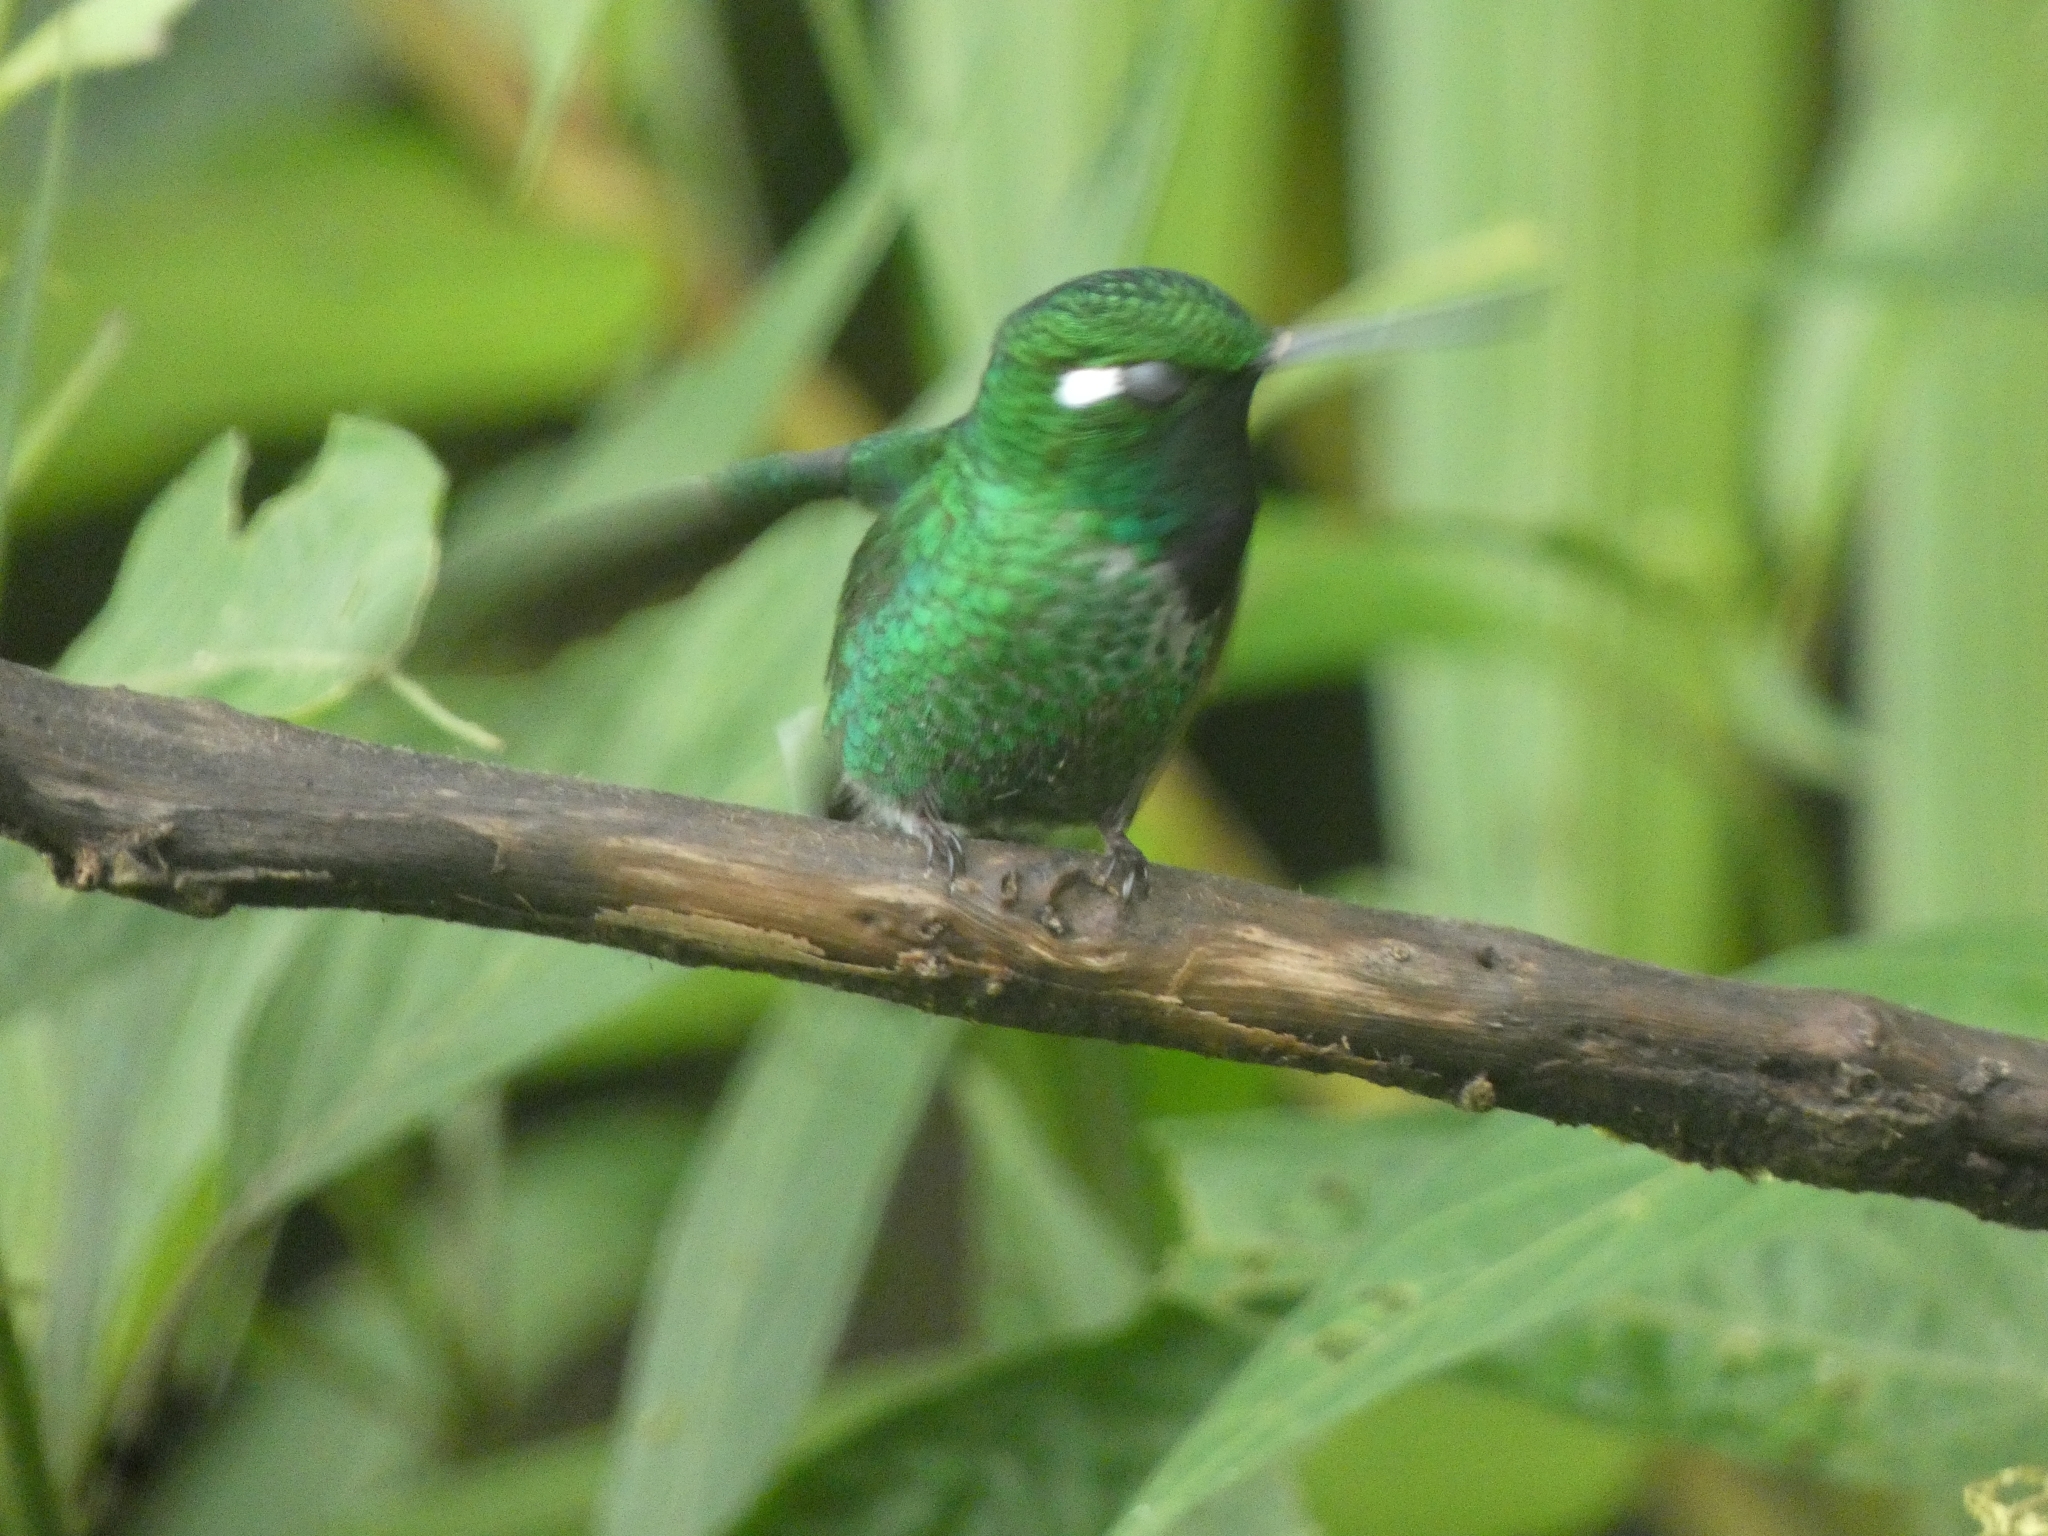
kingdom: Animalia
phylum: Chordata
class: Aves
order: Apodiformes
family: Trochilidae
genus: Urosticte
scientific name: Urosticte benjamini
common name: Purple-bibbed whitetip
